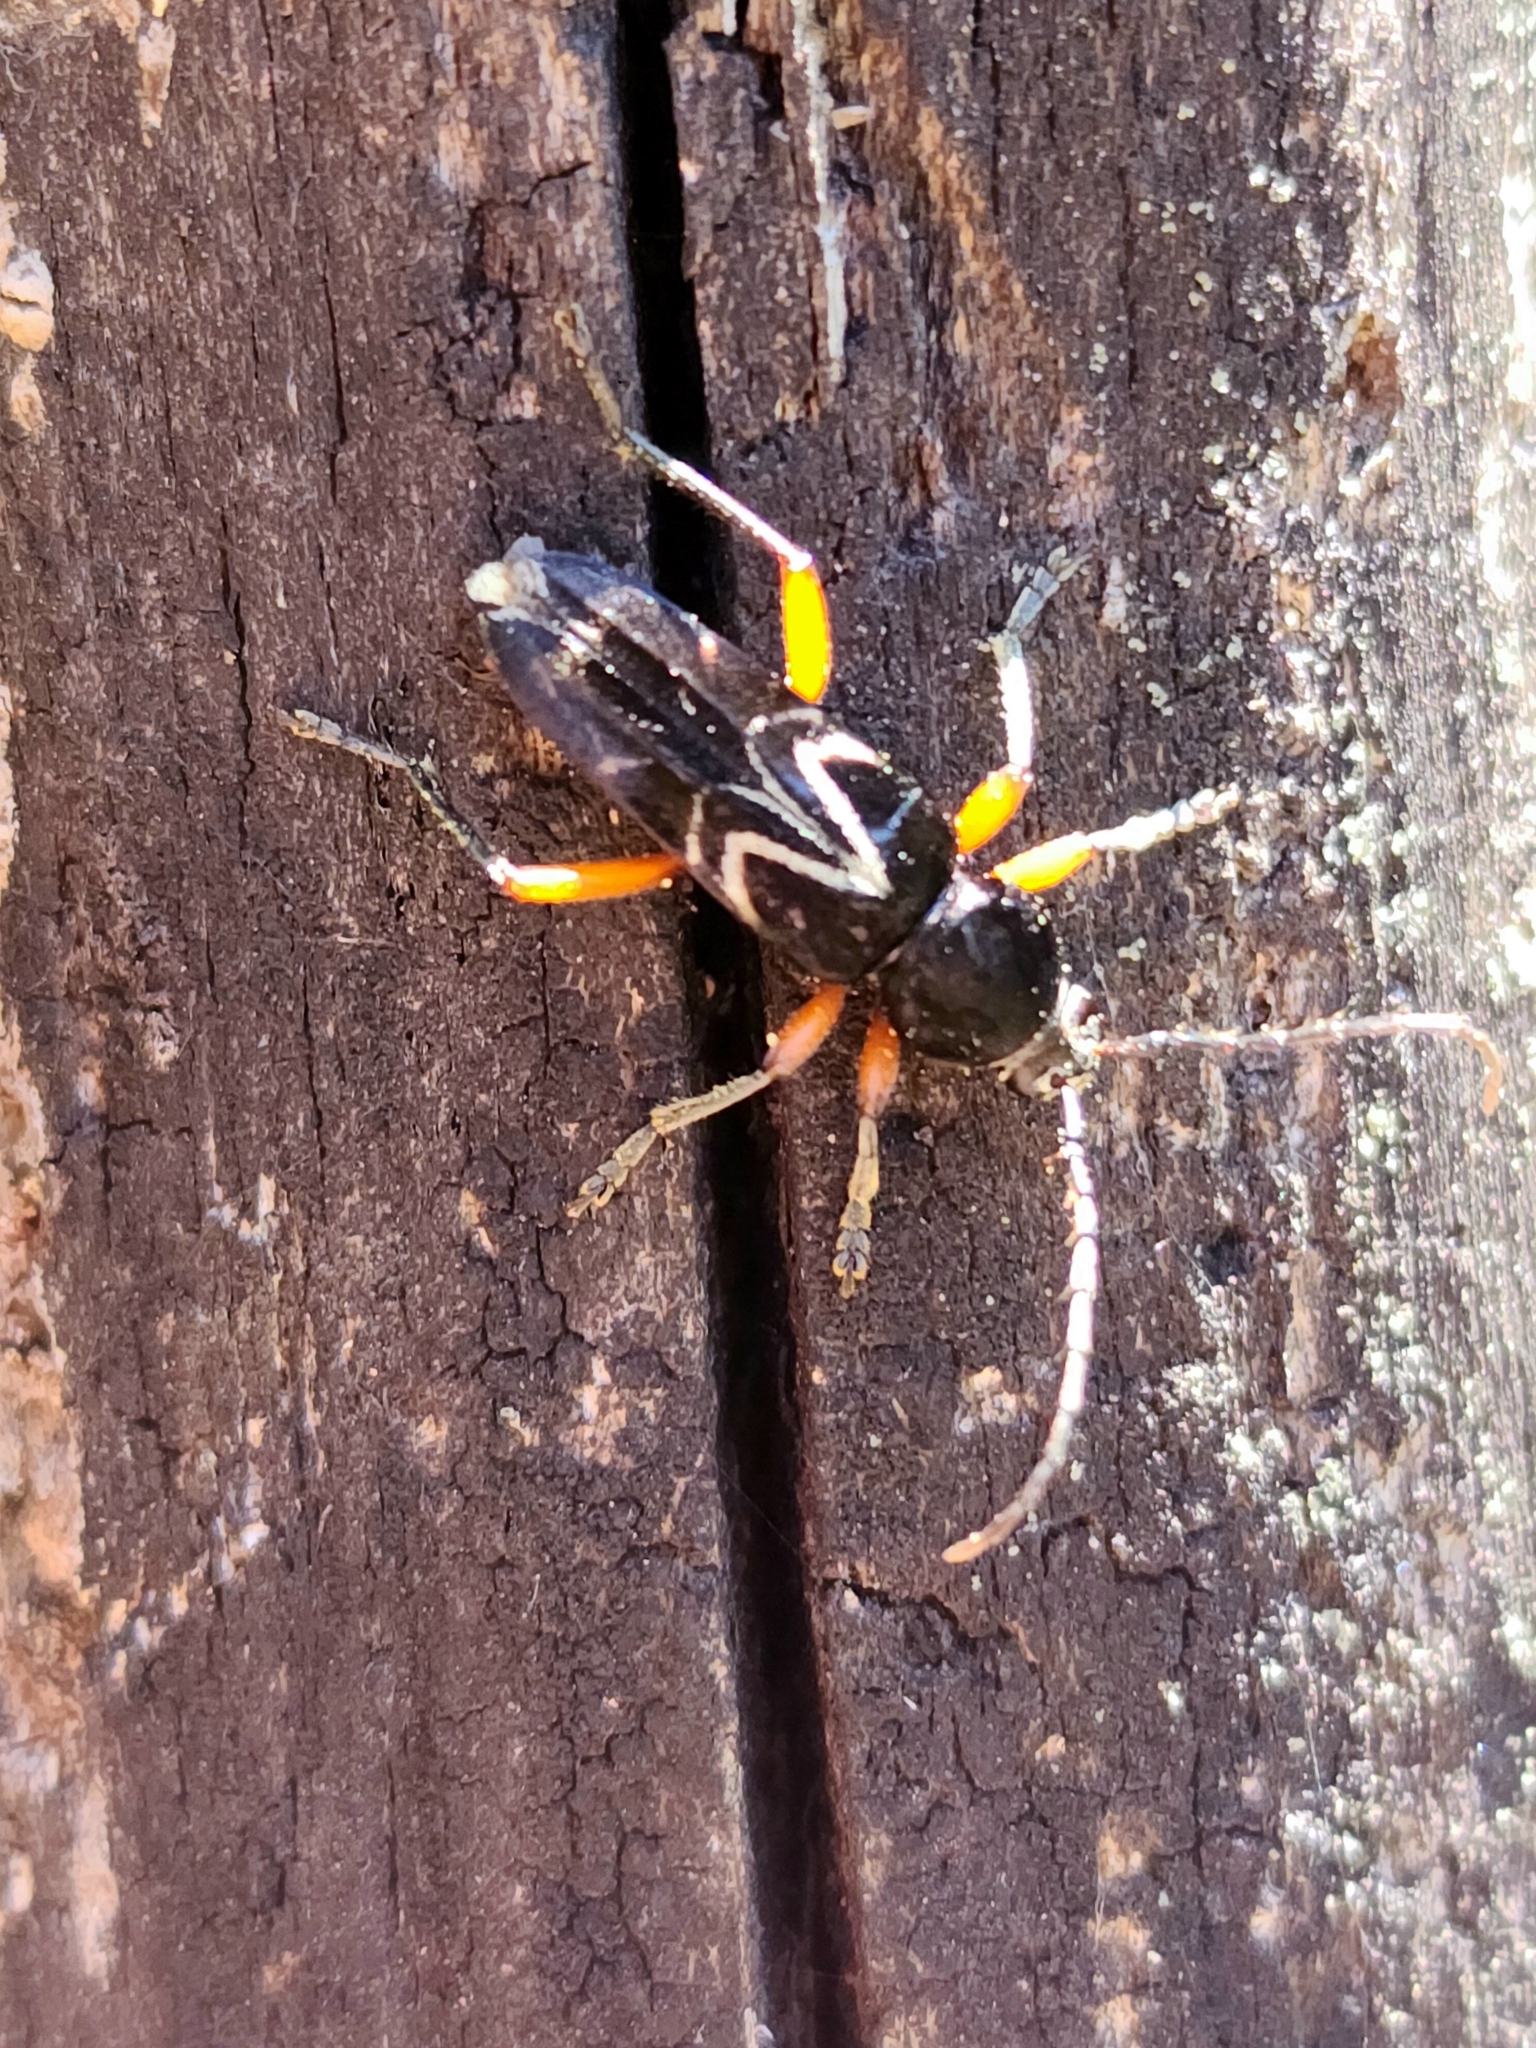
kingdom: Animalia
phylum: Arthropoda
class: Insecta
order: Coleoptera
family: Cerambycidae
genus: Megacyllene
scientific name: Megacyllene rufofemorata
